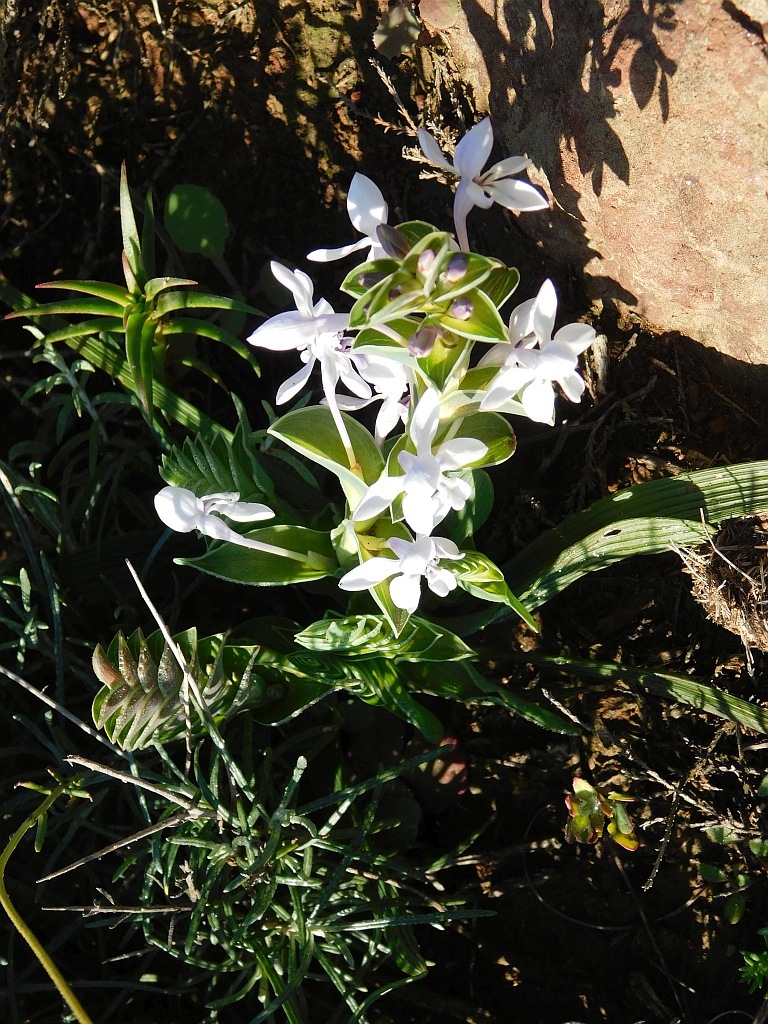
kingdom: Plantae
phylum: Tracheophyta
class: Liliopsida
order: Asparagales
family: Iridaceae
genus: Lapeirousia
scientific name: Lapeirousia pyramidalis
